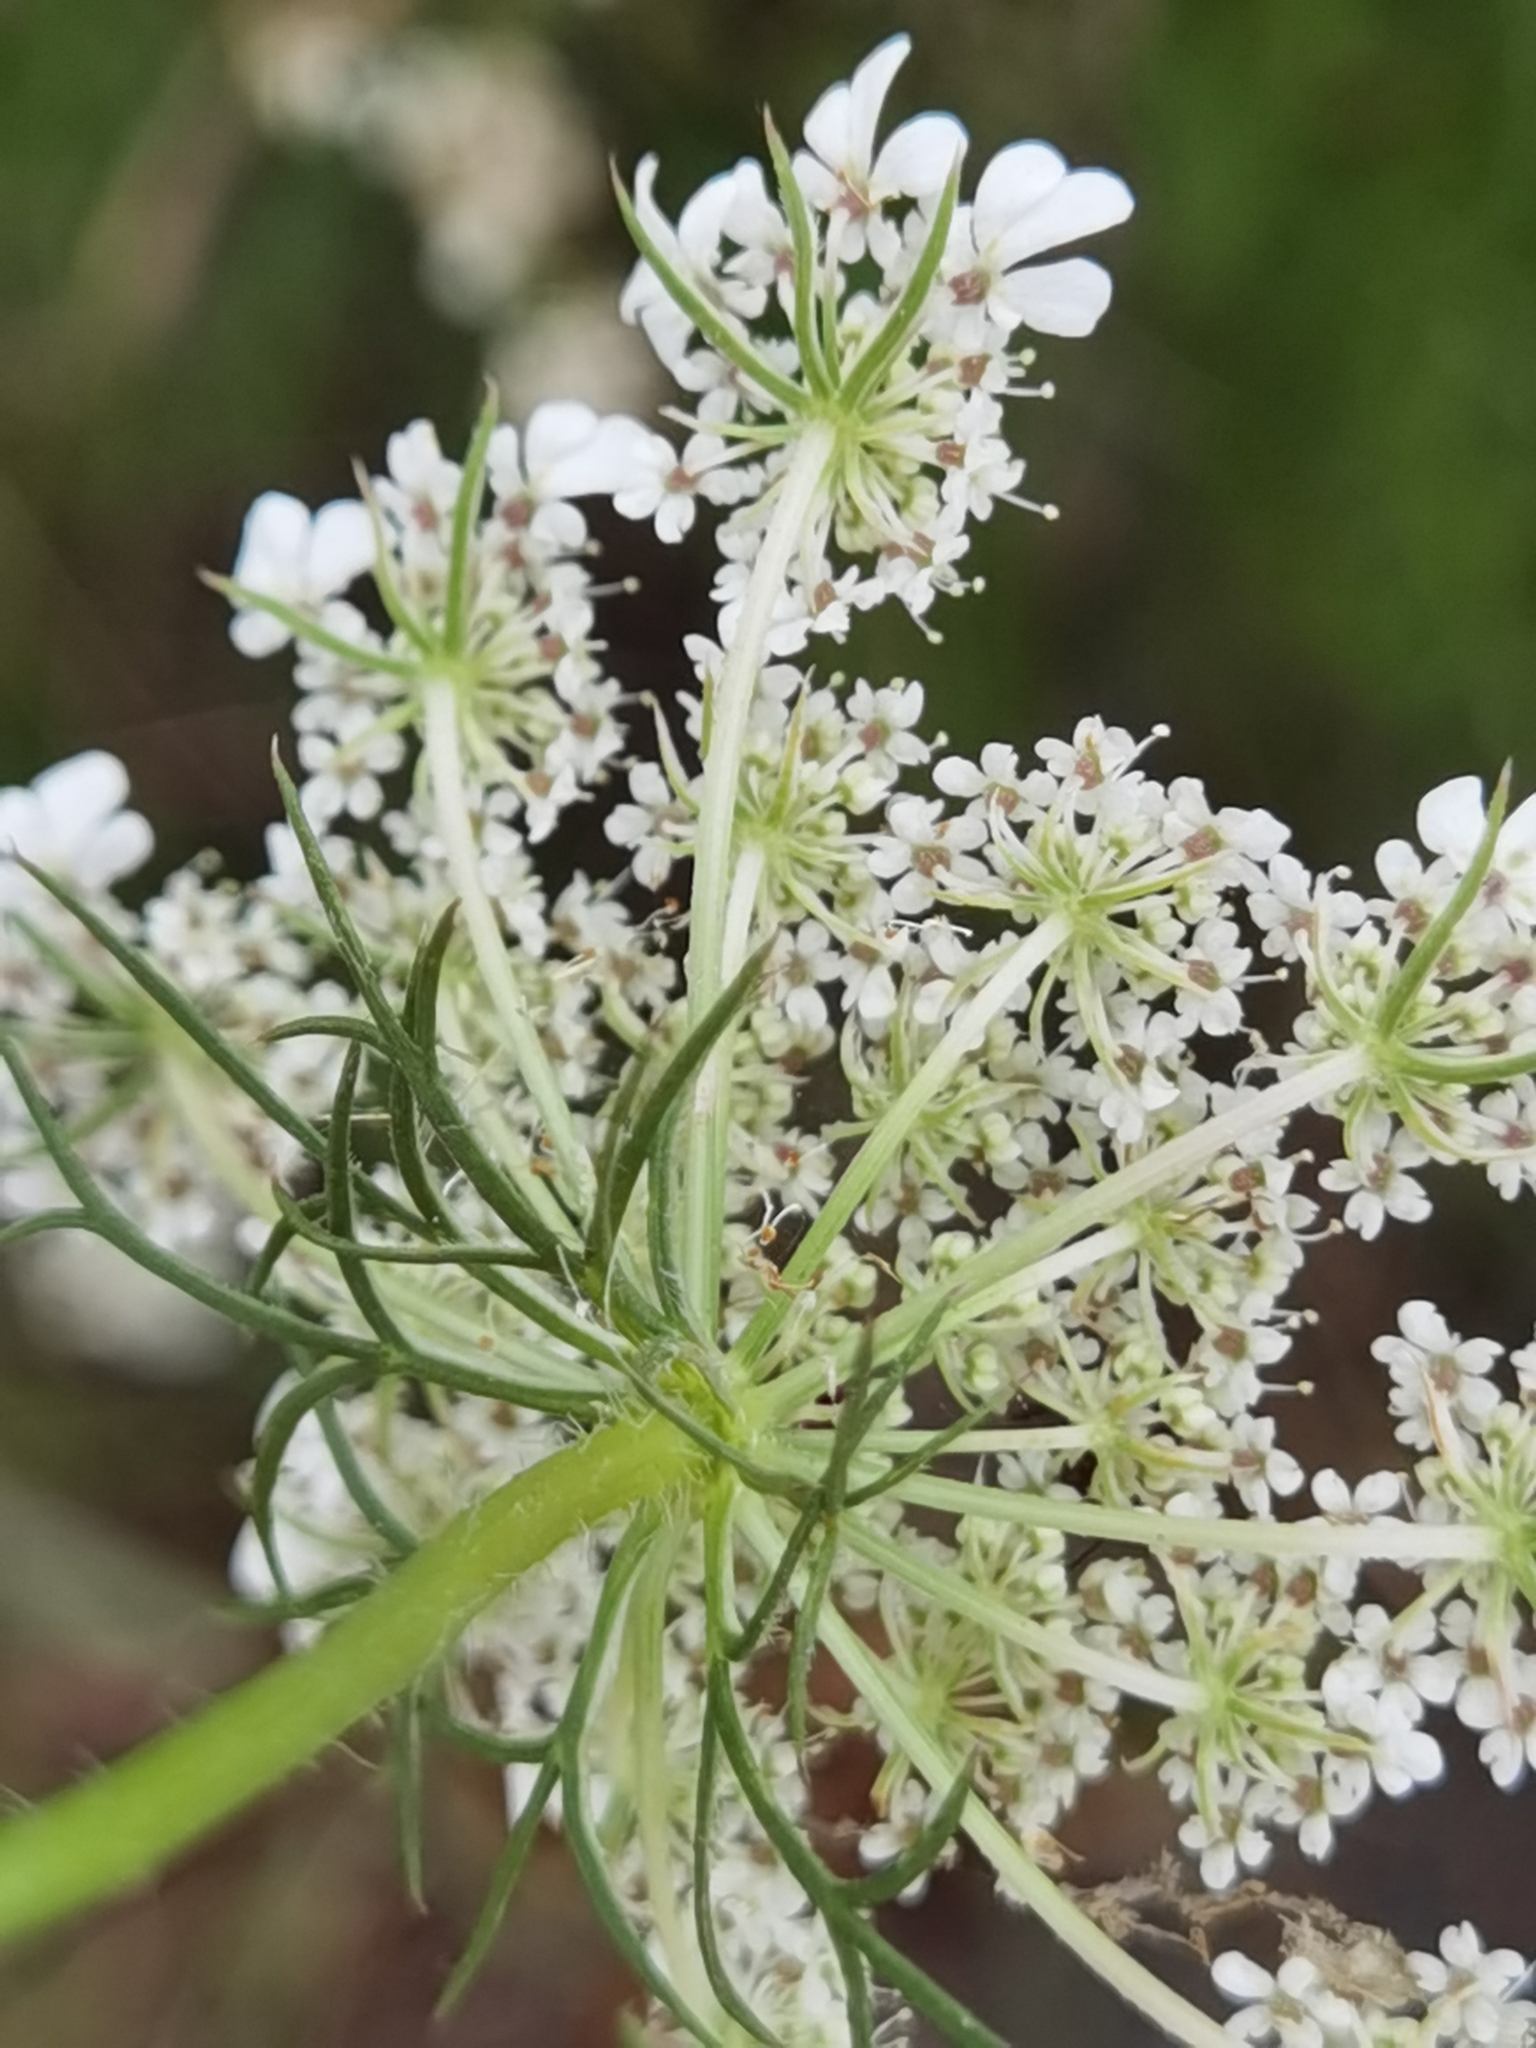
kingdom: Plantae
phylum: Tracheophyta
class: Magnoliopsida
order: Apiales
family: Apiaceae
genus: Daucus
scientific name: Daucus carota
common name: Wild carrot
